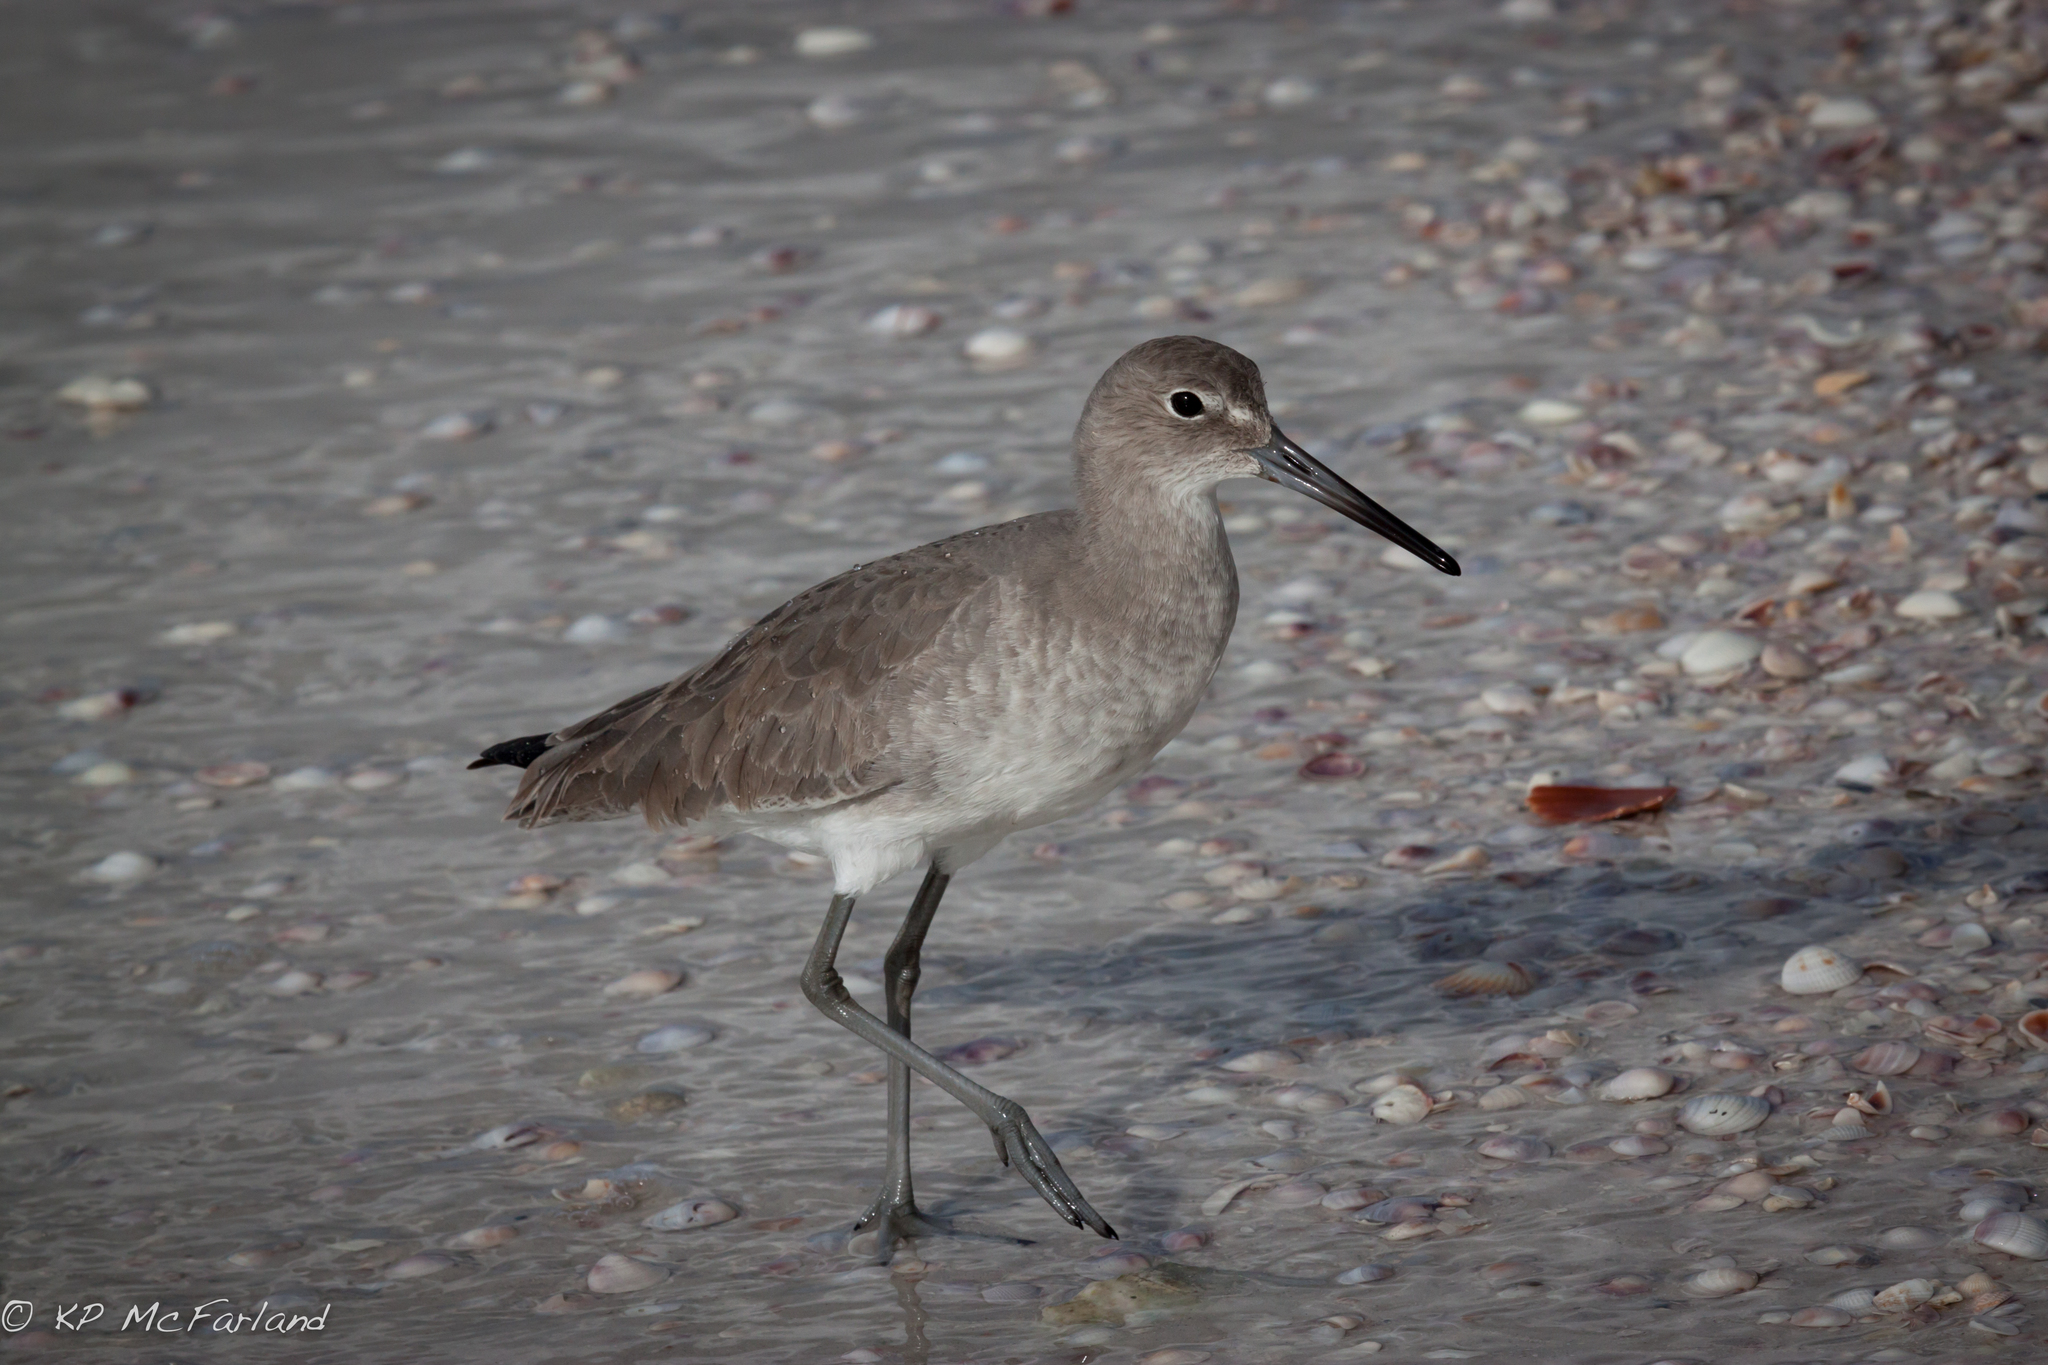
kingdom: Animalia
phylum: Chordata
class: Aves
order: Charadriiformes
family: Scolopacidae
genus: Tringa
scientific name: Tringa semipalmata
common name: Willet
